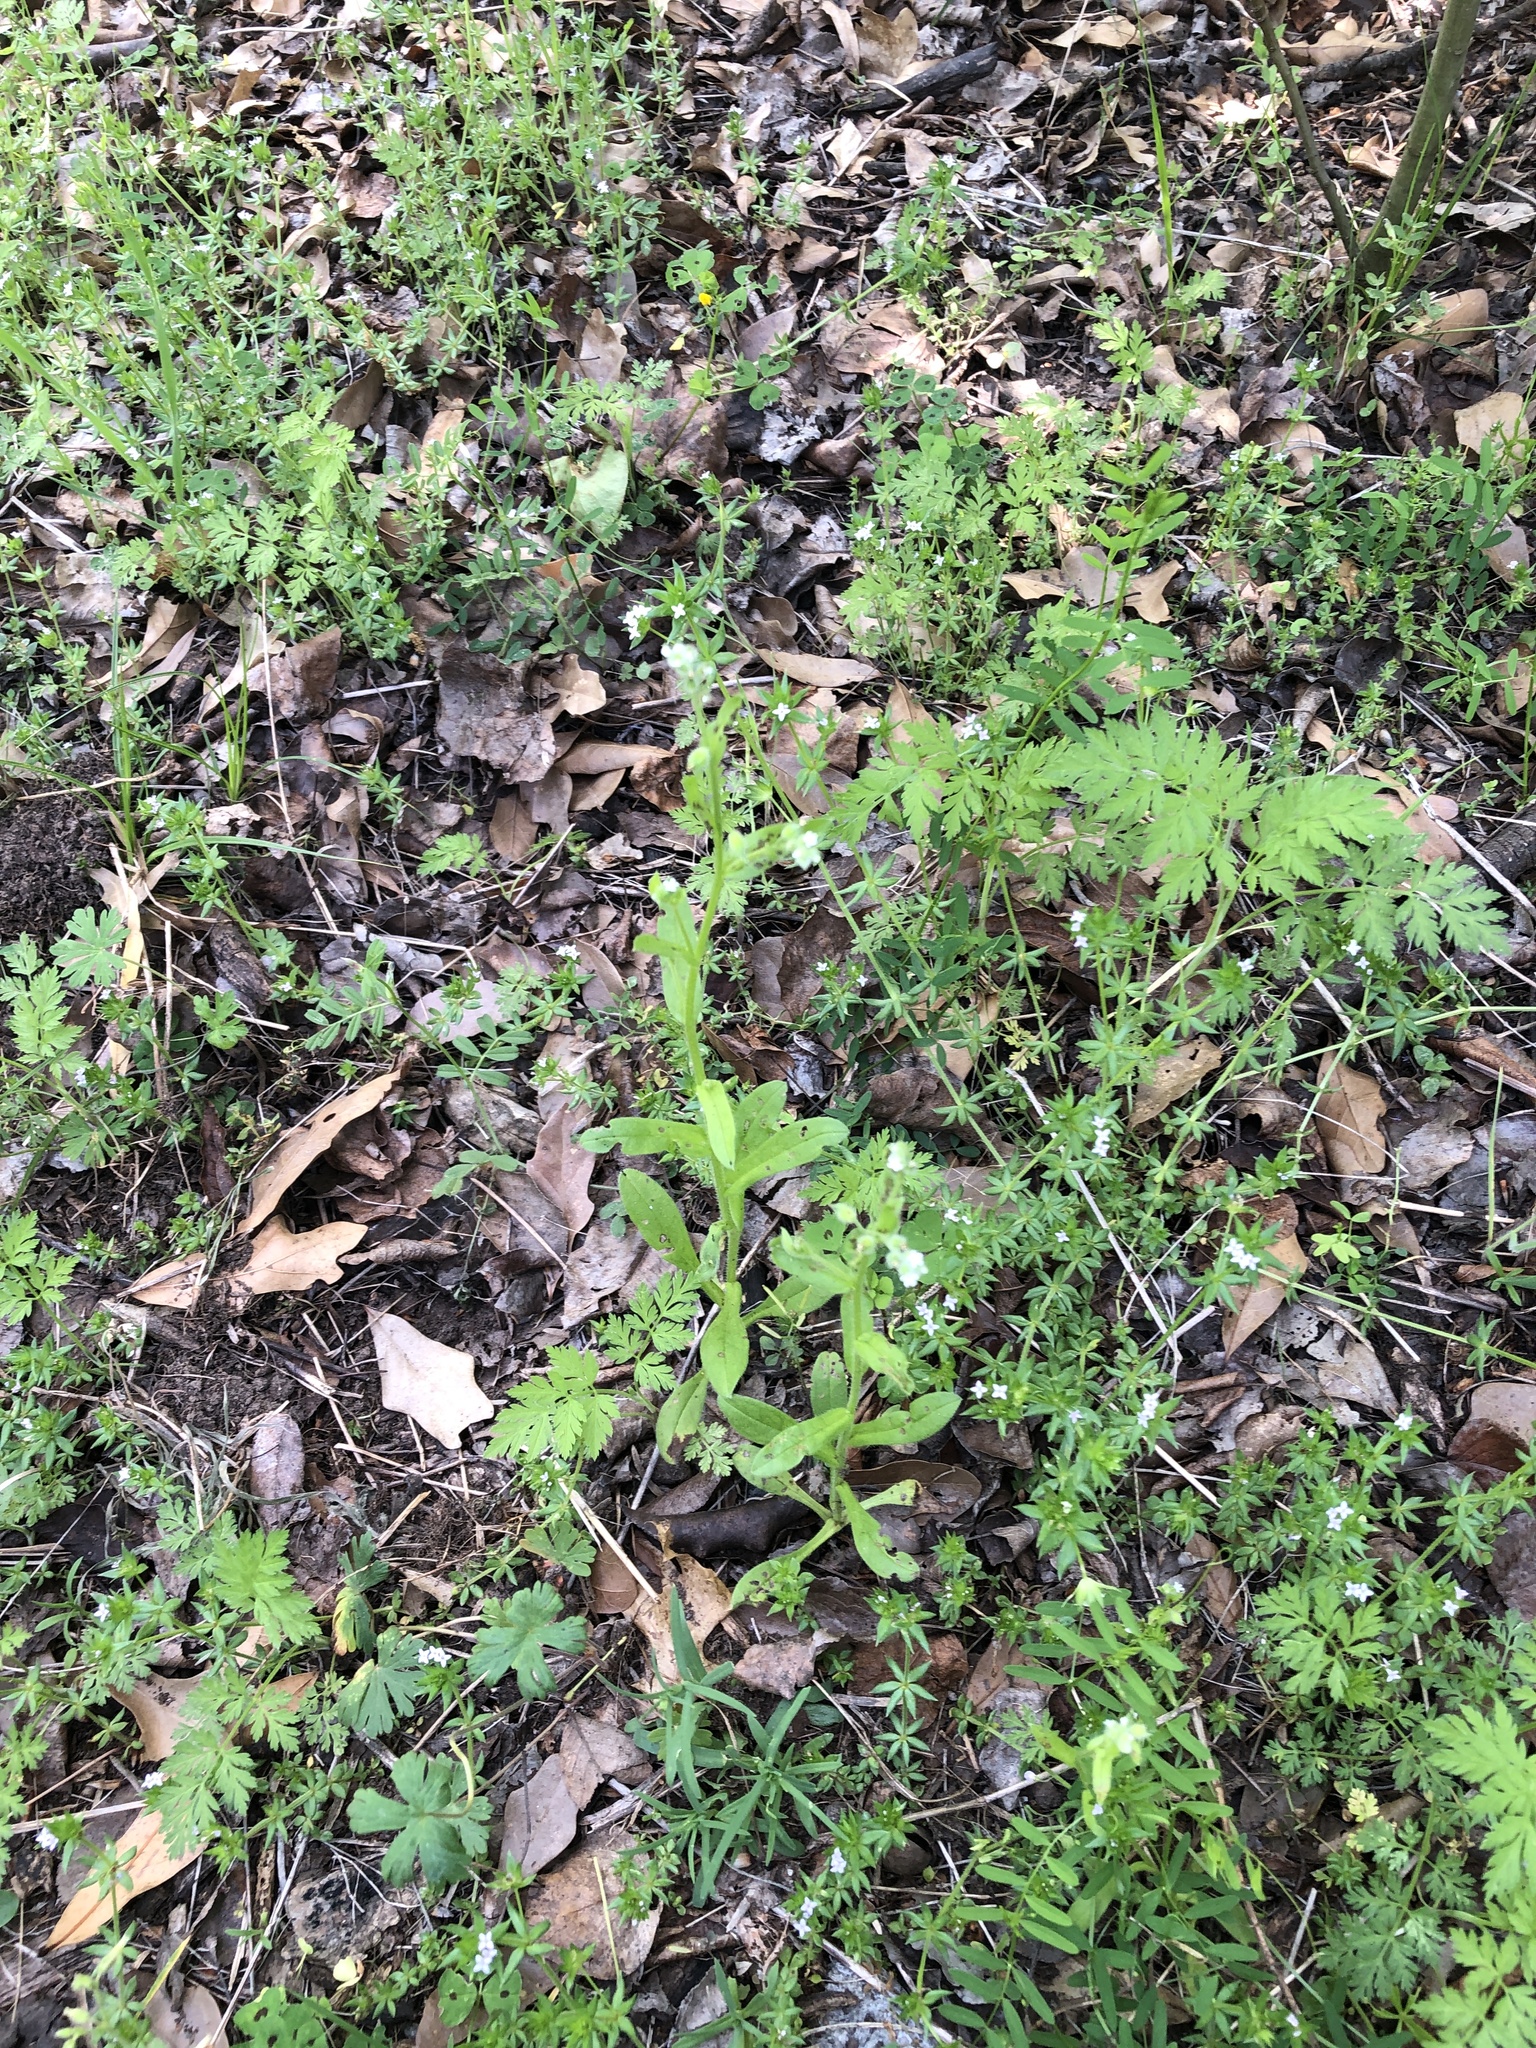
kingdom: Plantae
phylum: Tracheophyta
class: Magnoliopsida
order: Boraginales
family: Boraginaceae
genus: Myosotis
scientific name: Myosotis macrosperma
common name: Large-seed forget-me-not
